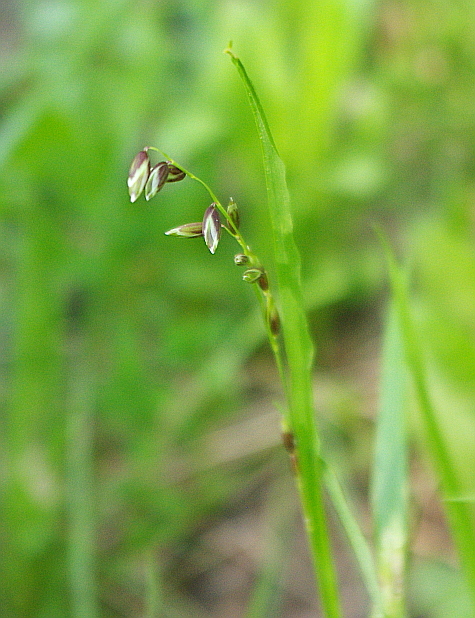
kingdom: Plantae
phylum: Tracheophyta
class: Liliopsida
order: Poales
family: Poaceae
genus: Melica
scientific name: Melica nutans
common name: Mountain melick
